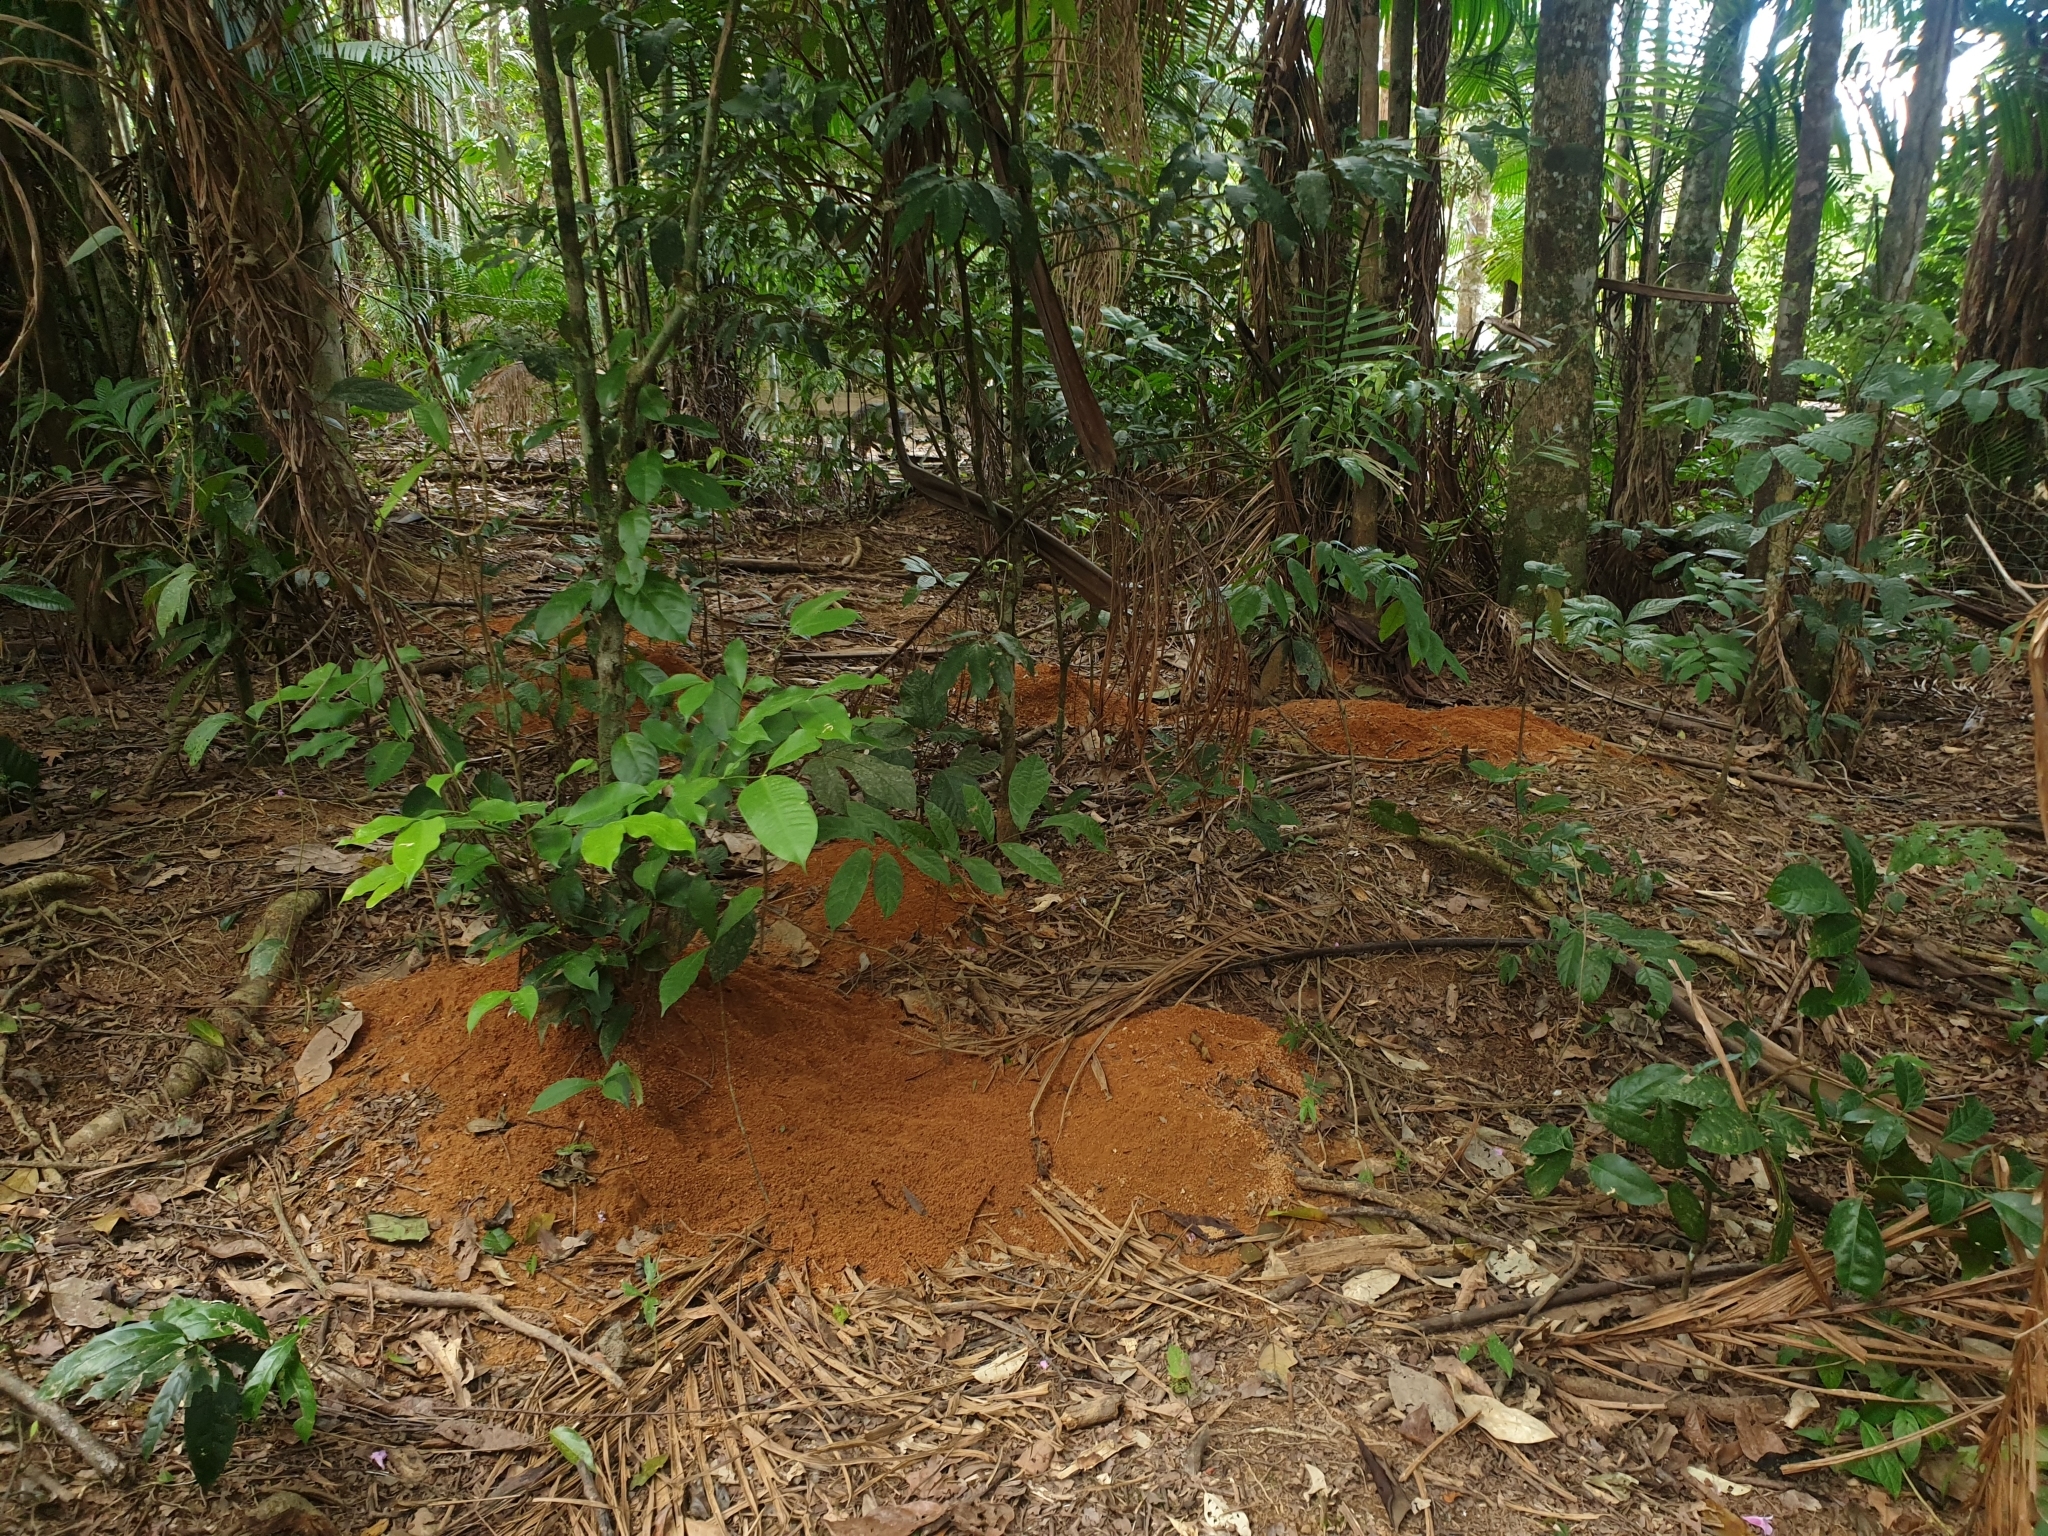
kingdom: Animalia
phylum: Arthropoda
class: Insecta
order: Hymenoptera
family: Formicidae
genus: Atta
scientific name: Atta
